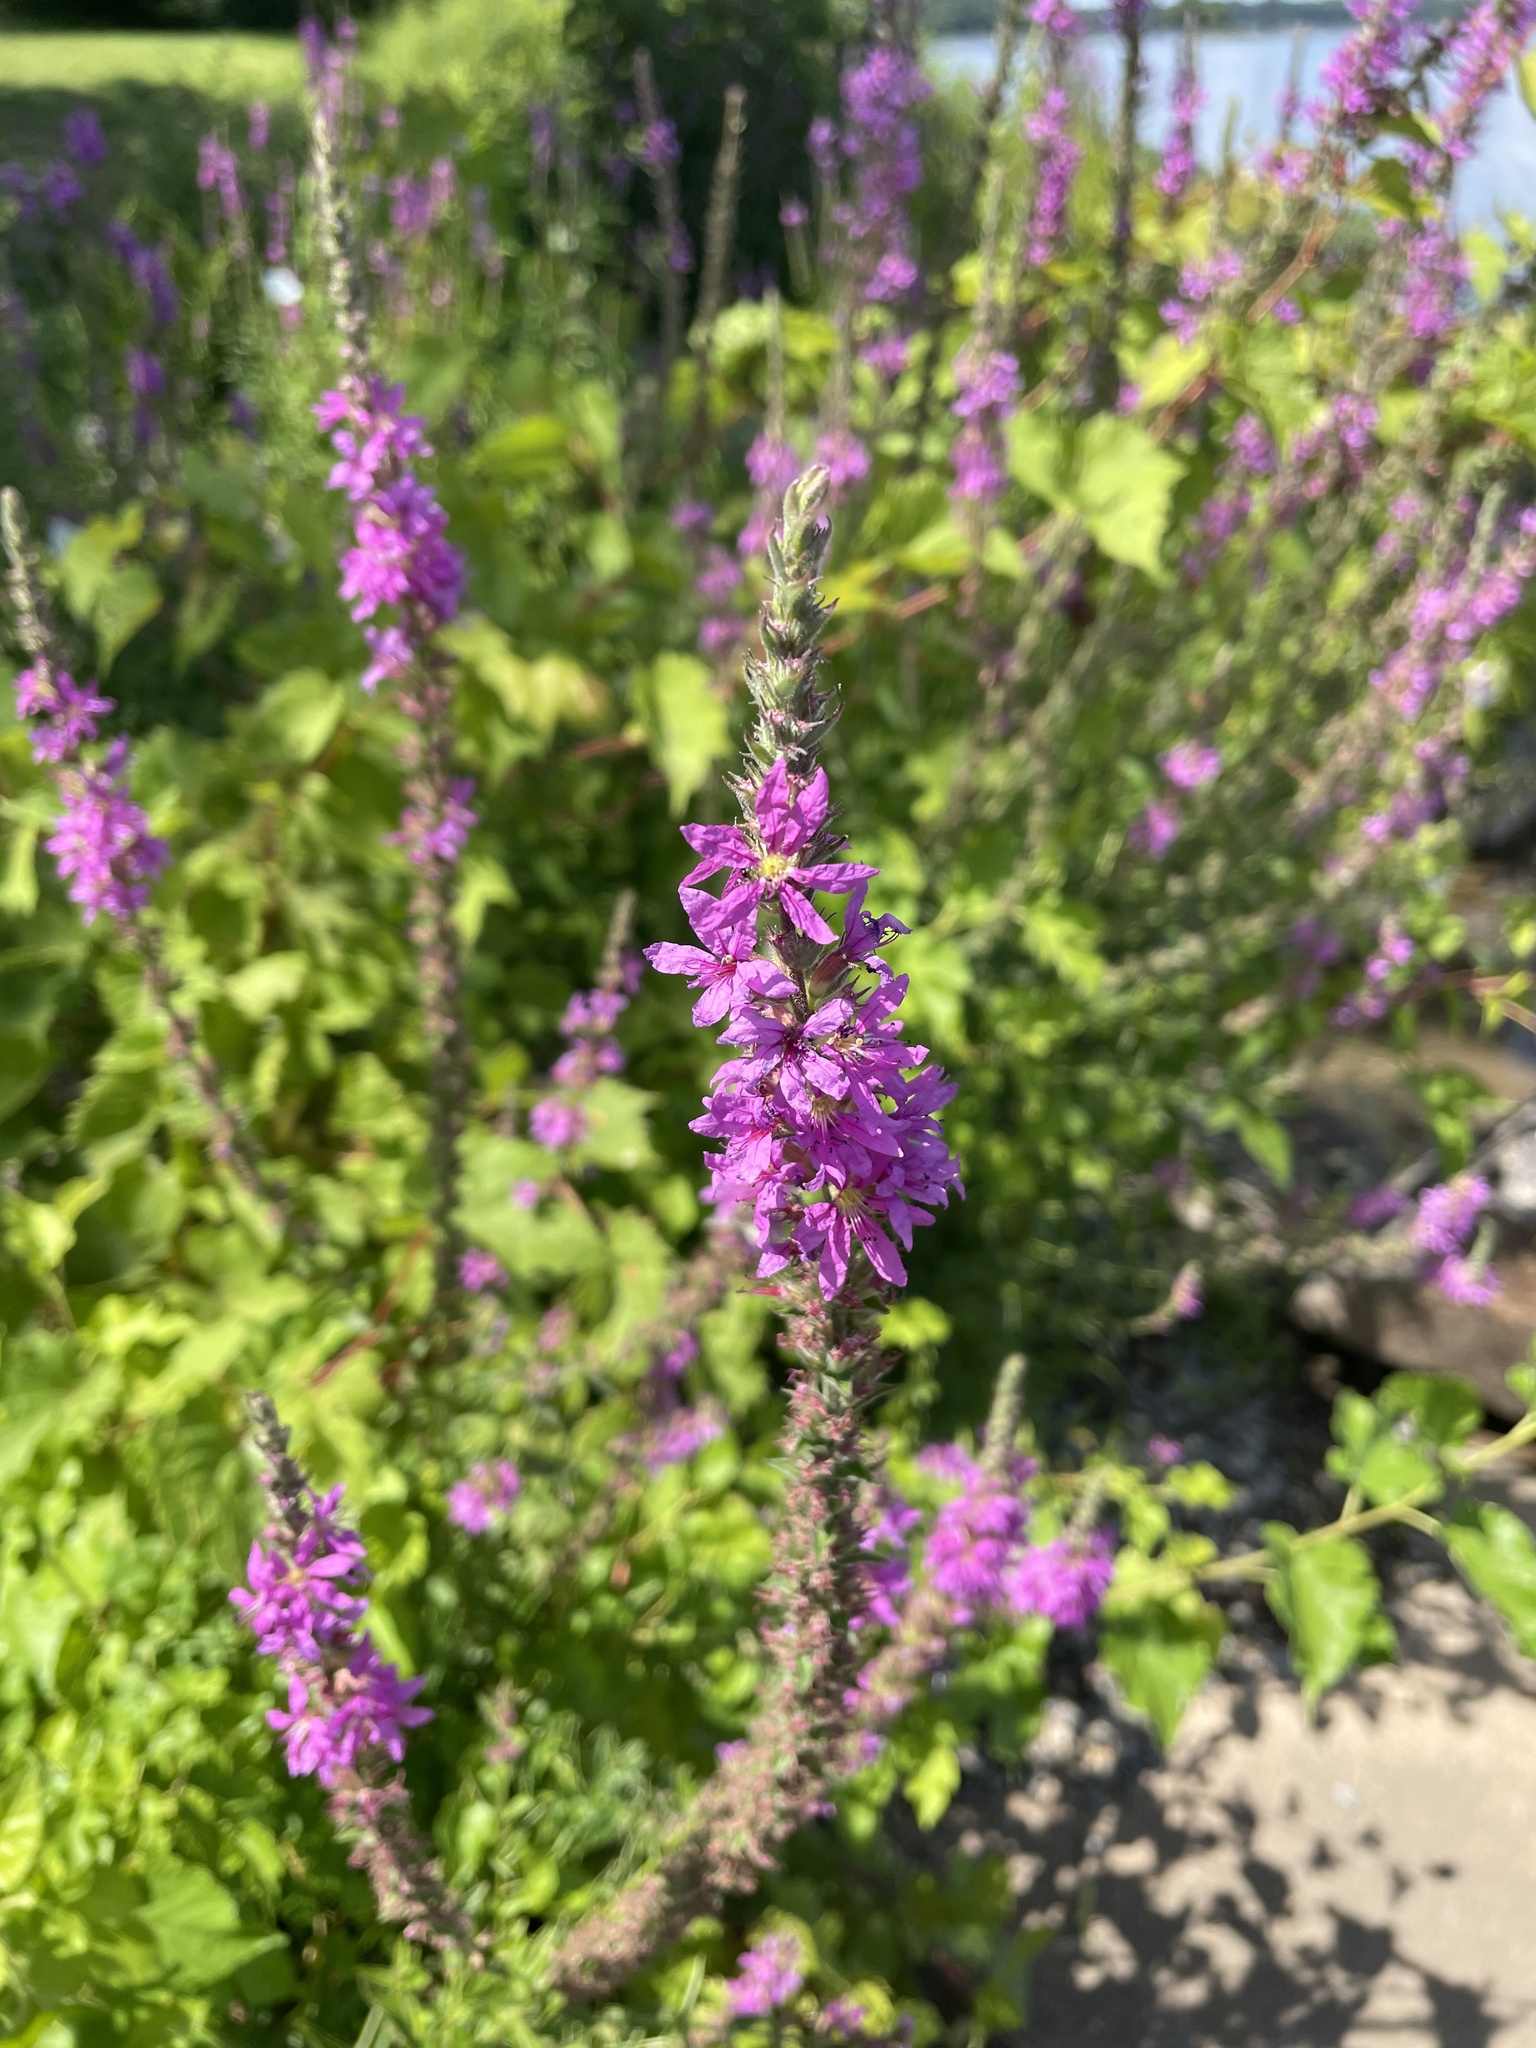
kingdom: Plantae
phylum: Tracheophyta
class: Magnoliopsida
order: Myrtales
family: Lythraceae
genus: Lythrum
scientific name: Lythrum salicaria
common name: Purple loosestrife
